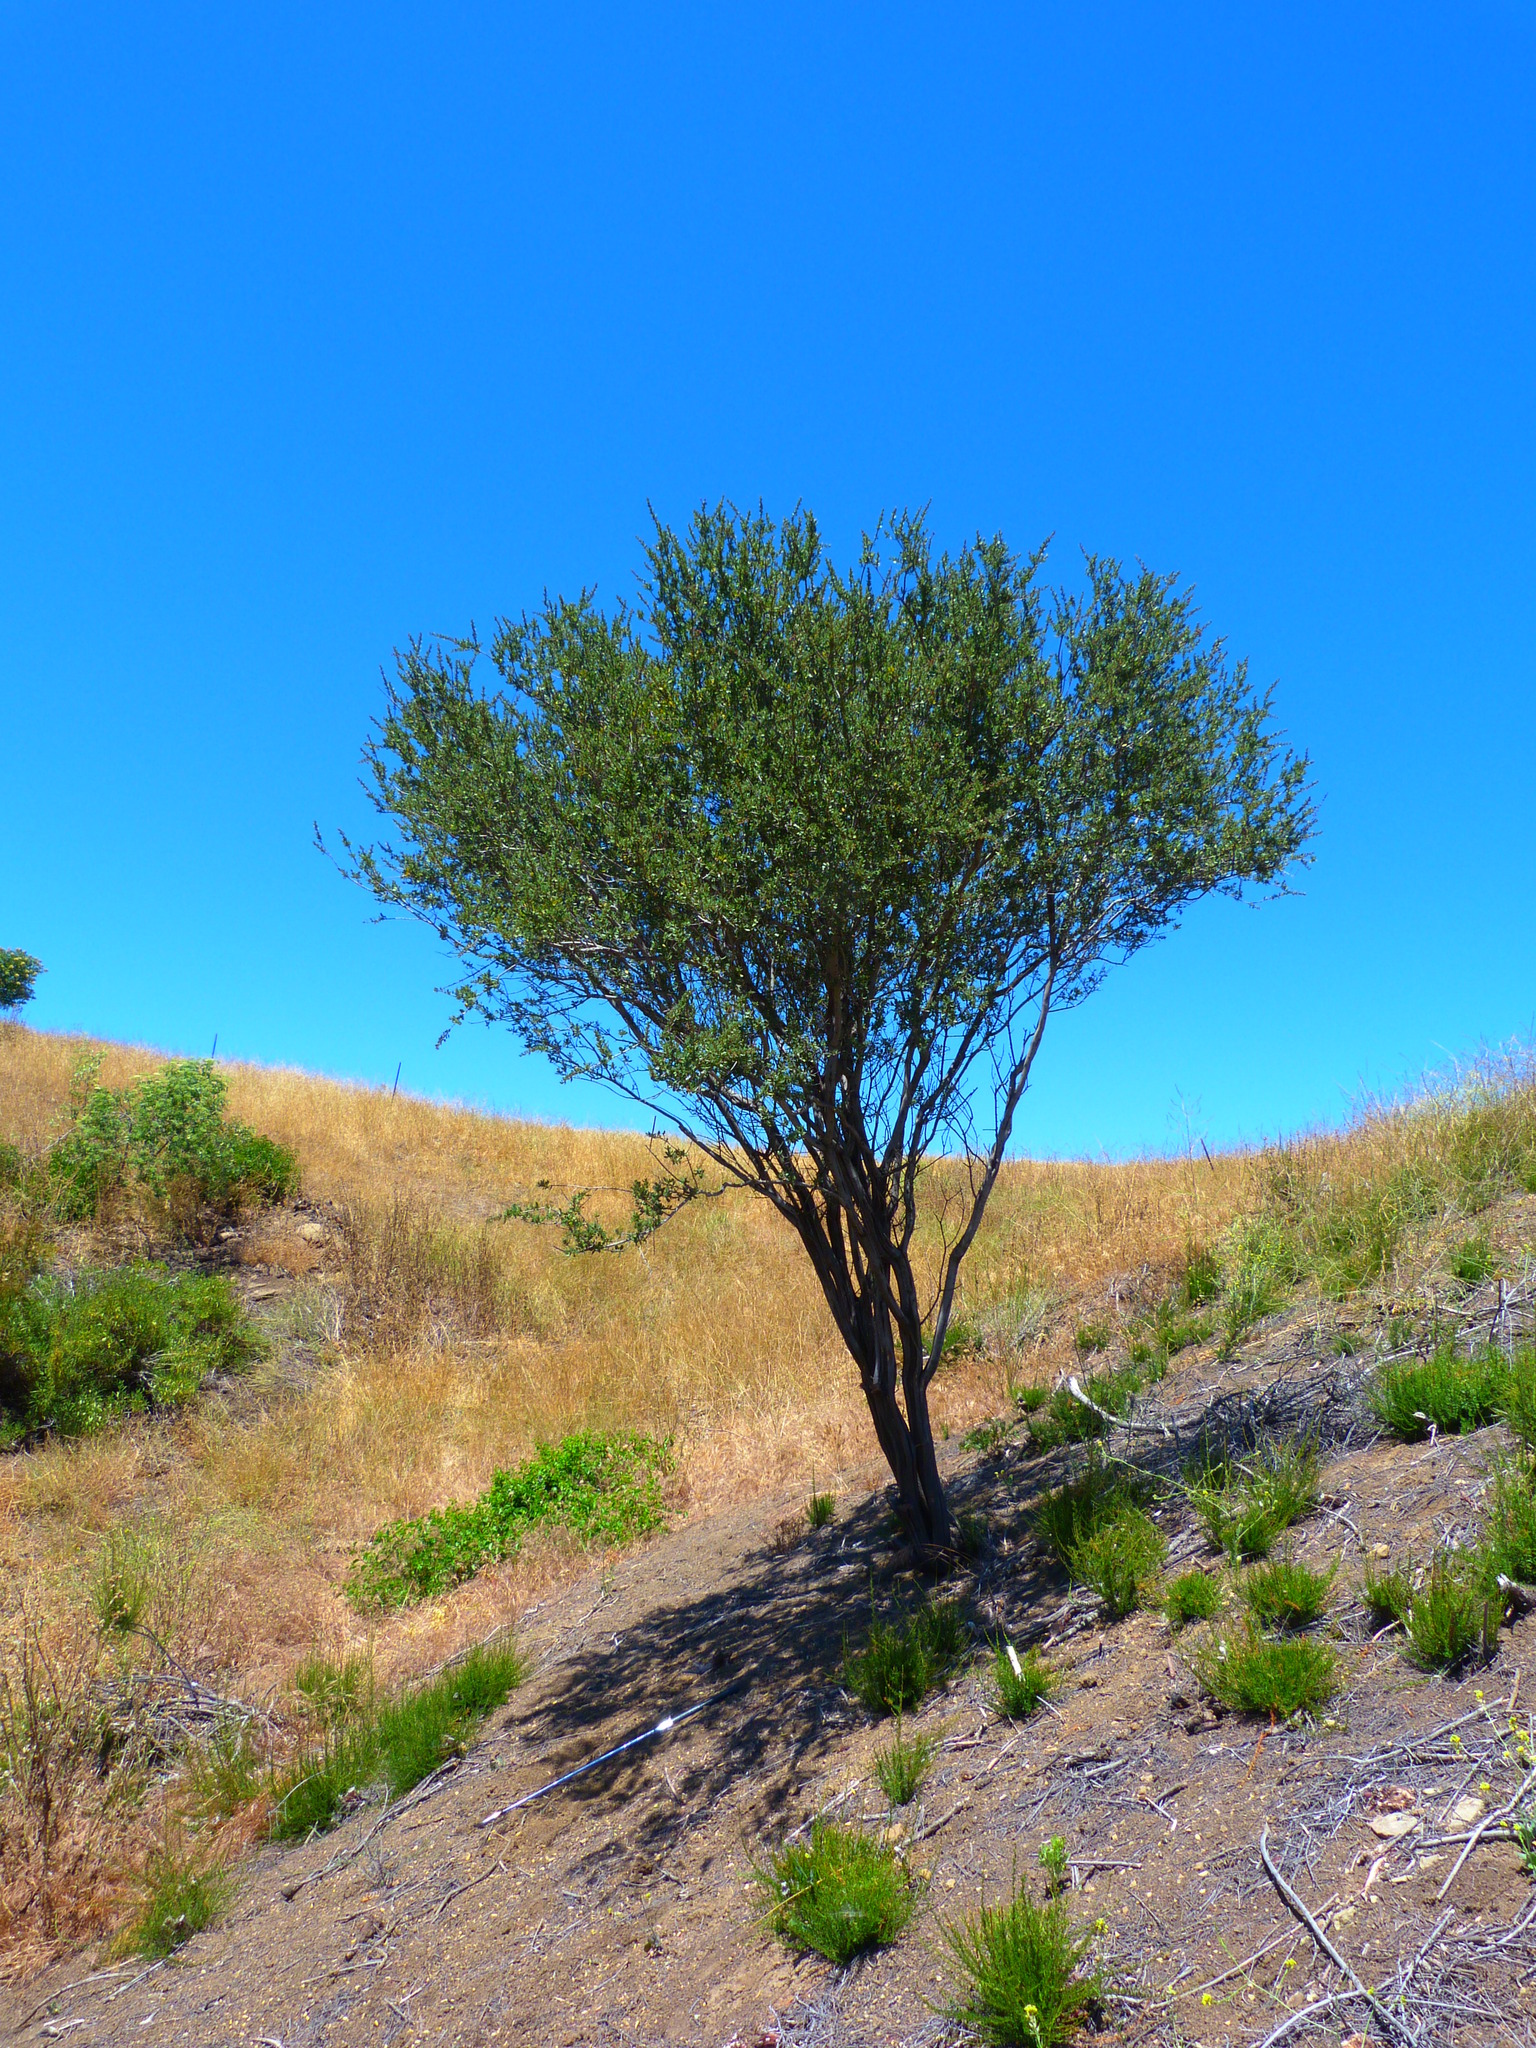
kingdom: Plantae
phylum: Tracheophyta
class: Magnoliopsida
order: Rosales
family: Rhamnaceae
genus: Ceanothus
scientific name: Ceanothus cuneatus
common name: Cuneate ceanothus
